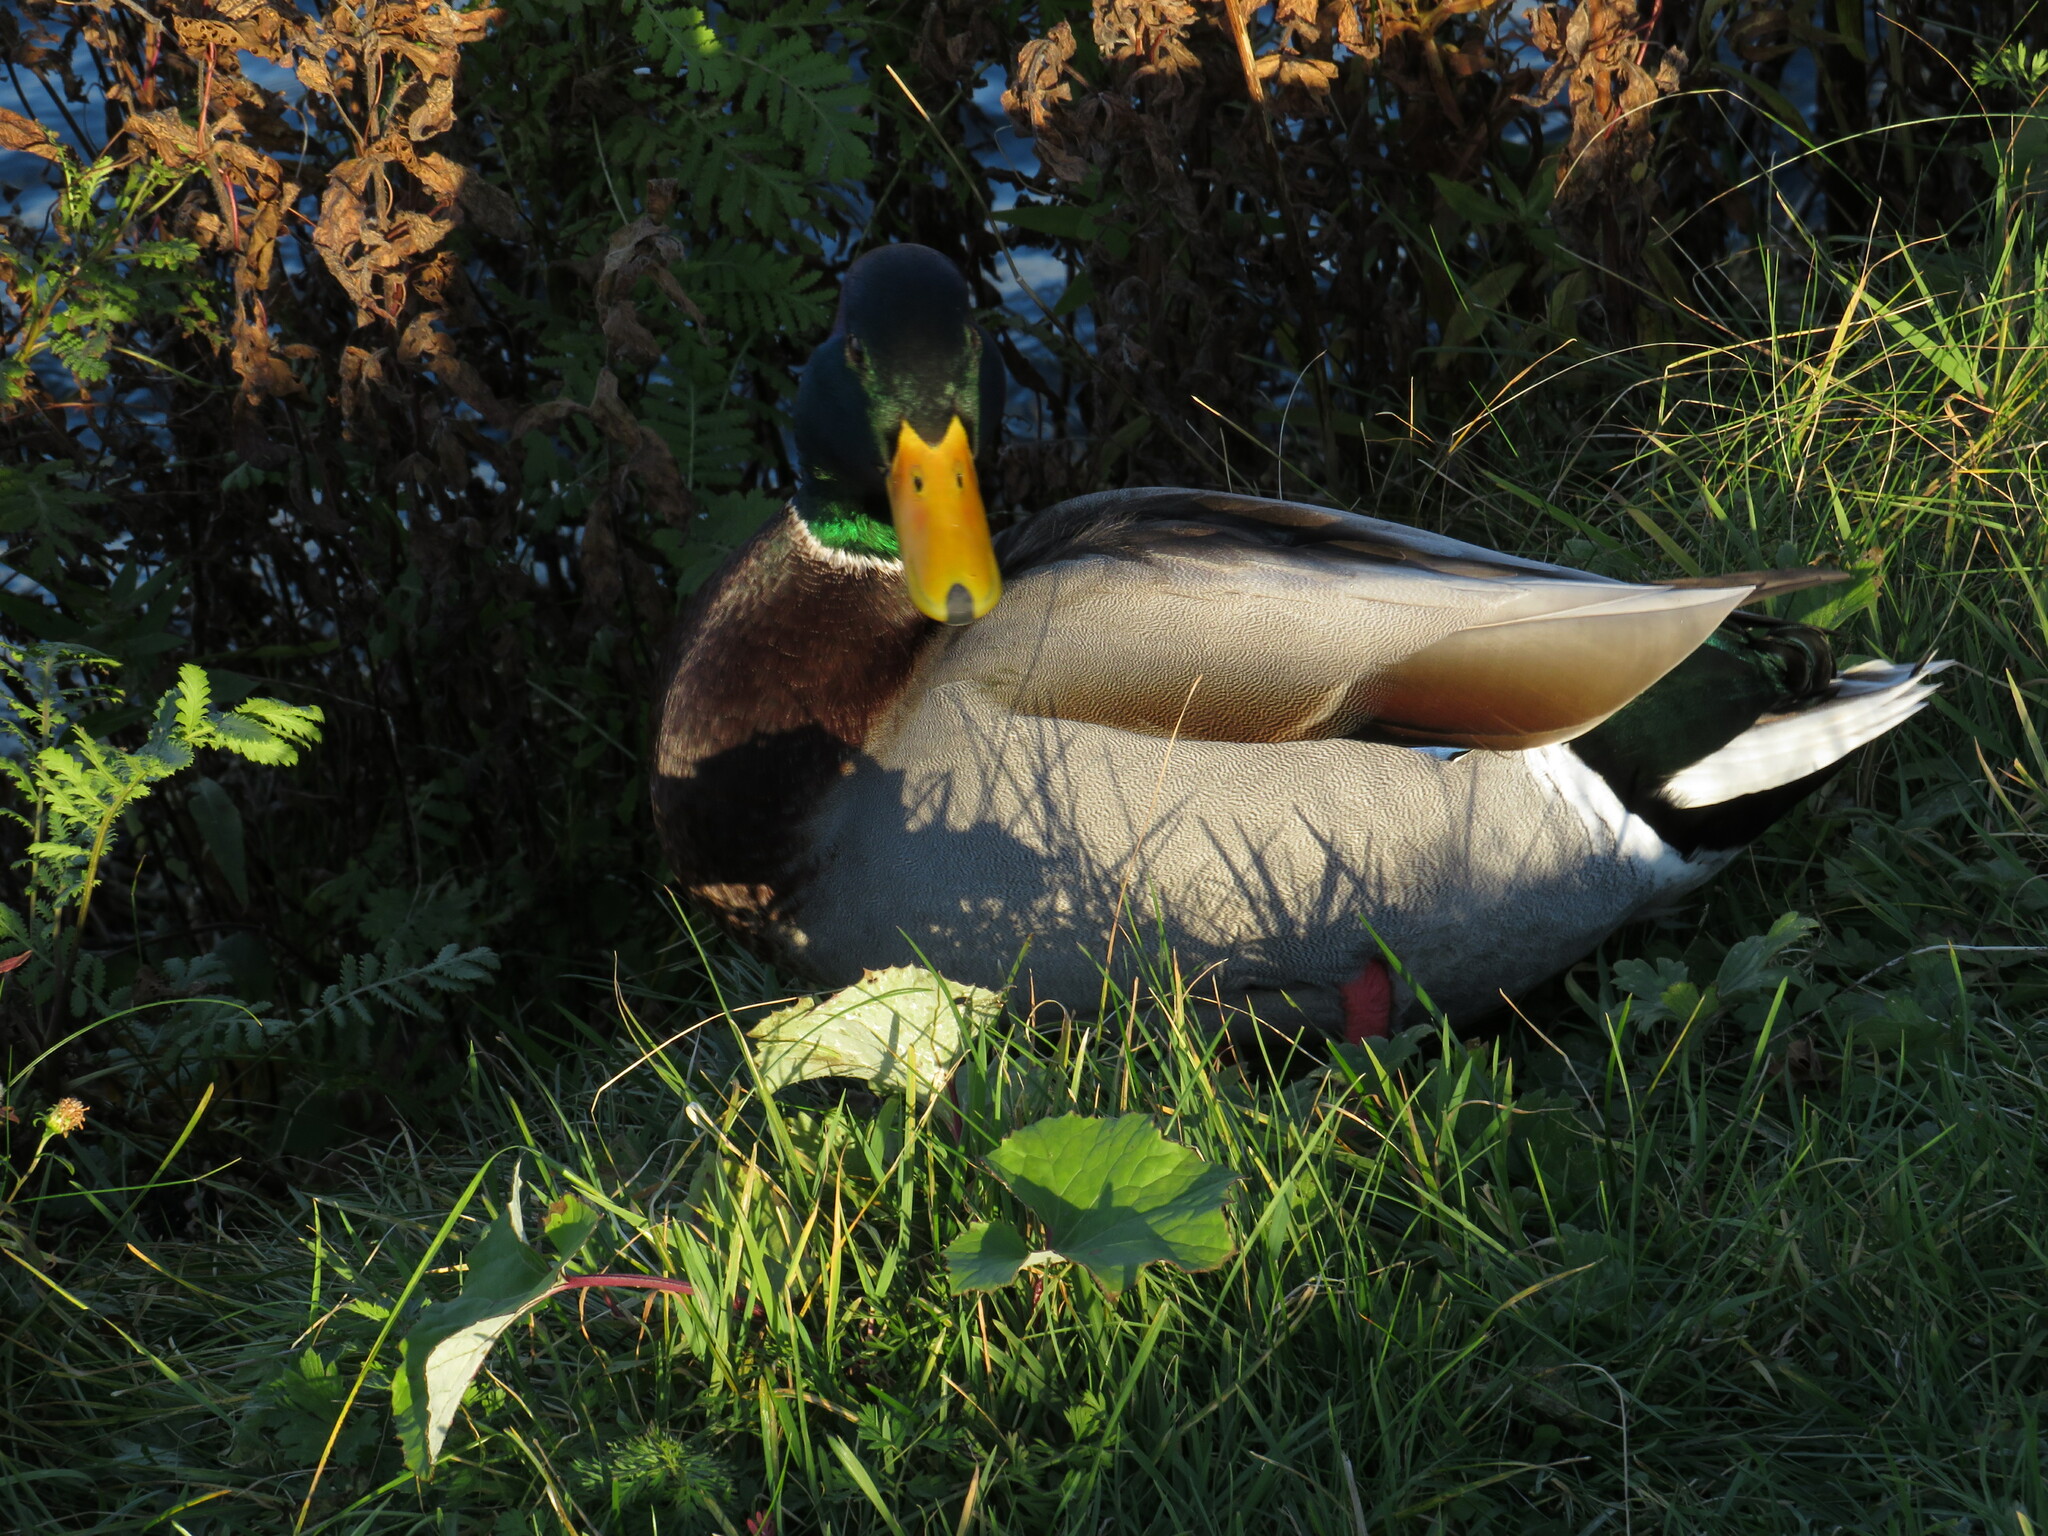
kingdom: Animalia
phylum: Chordata
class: Aves
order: Anseriformes
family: Anatidae
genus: Anas
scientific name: Anas platyrhynchos
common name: Mallard
